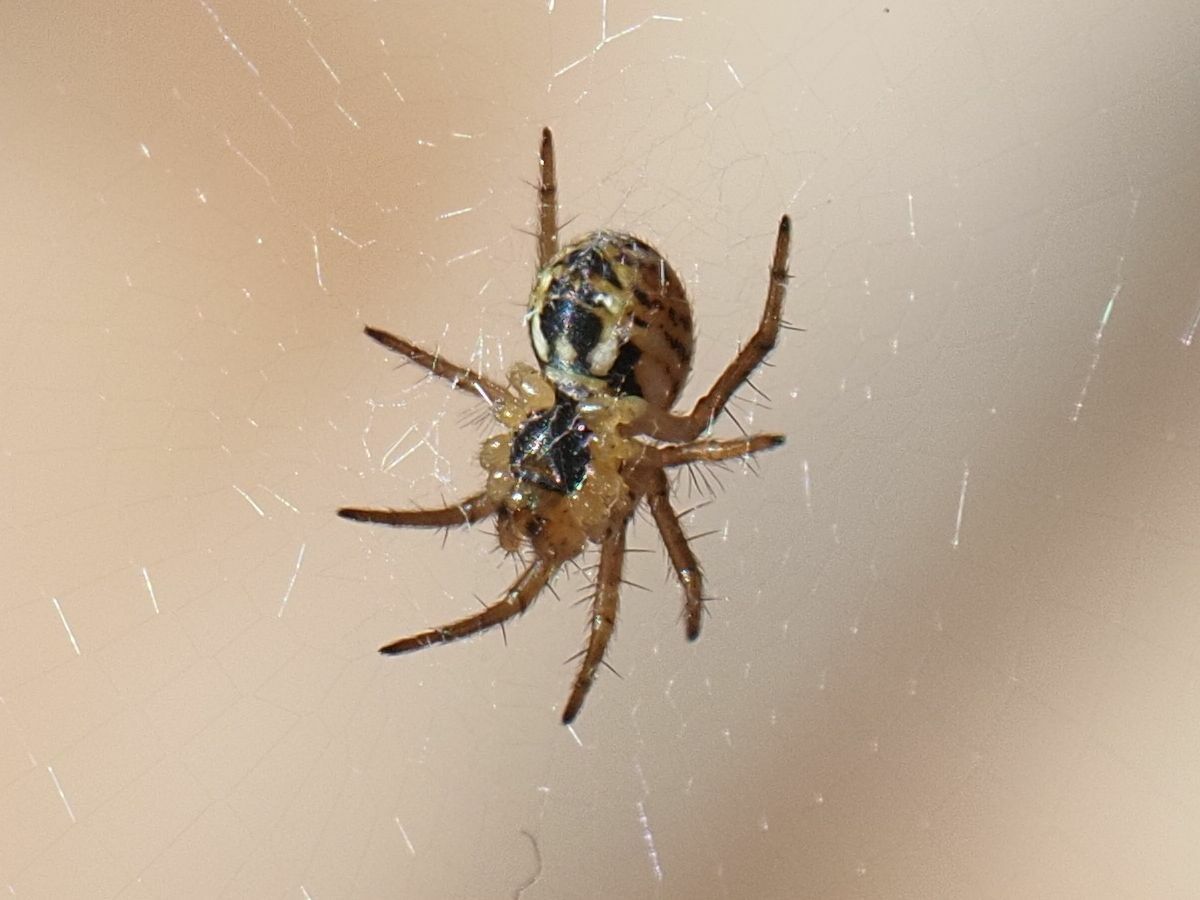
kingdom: Animalia
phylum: Arthropoda
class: Arachnida
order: Araneae
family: Araneidae
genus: Mangora
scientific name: Mangora acalypha
